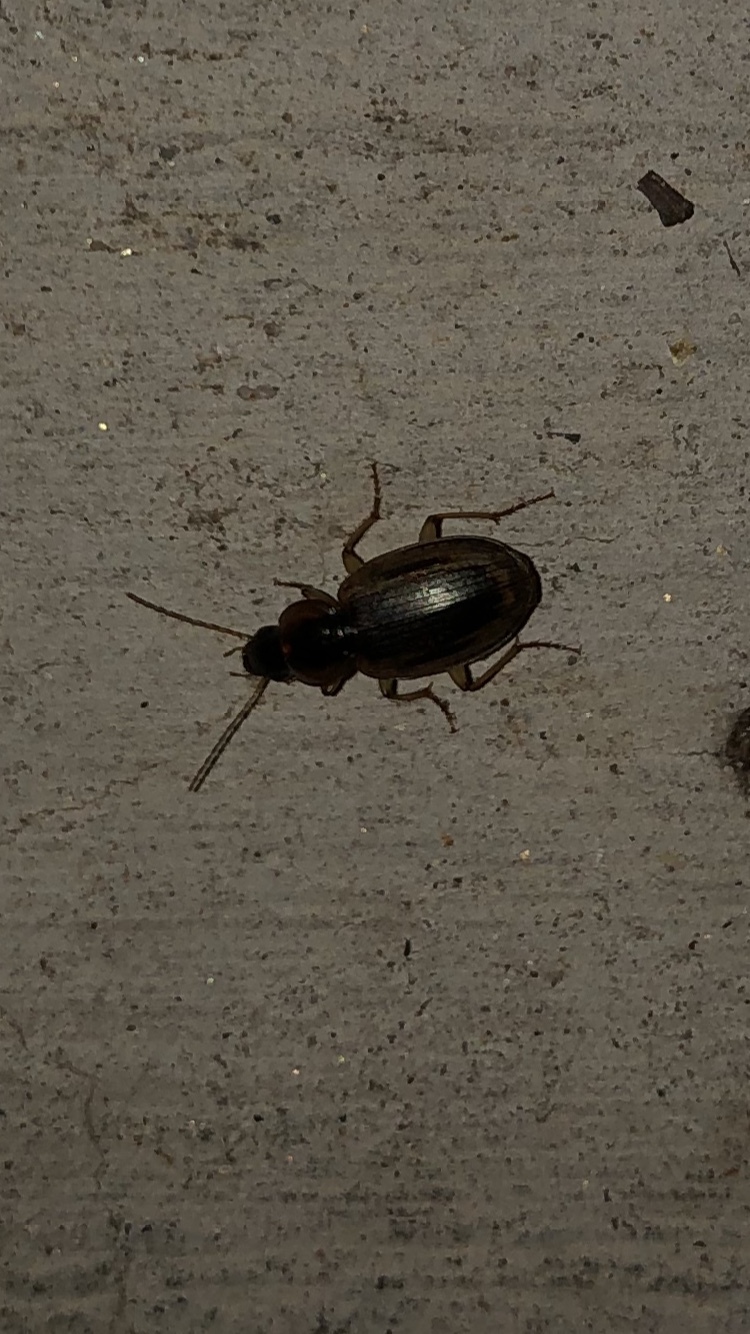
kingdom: Animalia
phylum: Arthropoda
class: Insecta
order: Coleoptera
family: Carabidae
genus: Tanystoma
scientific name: Tanystoma maculicolle
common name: Tule beetle
